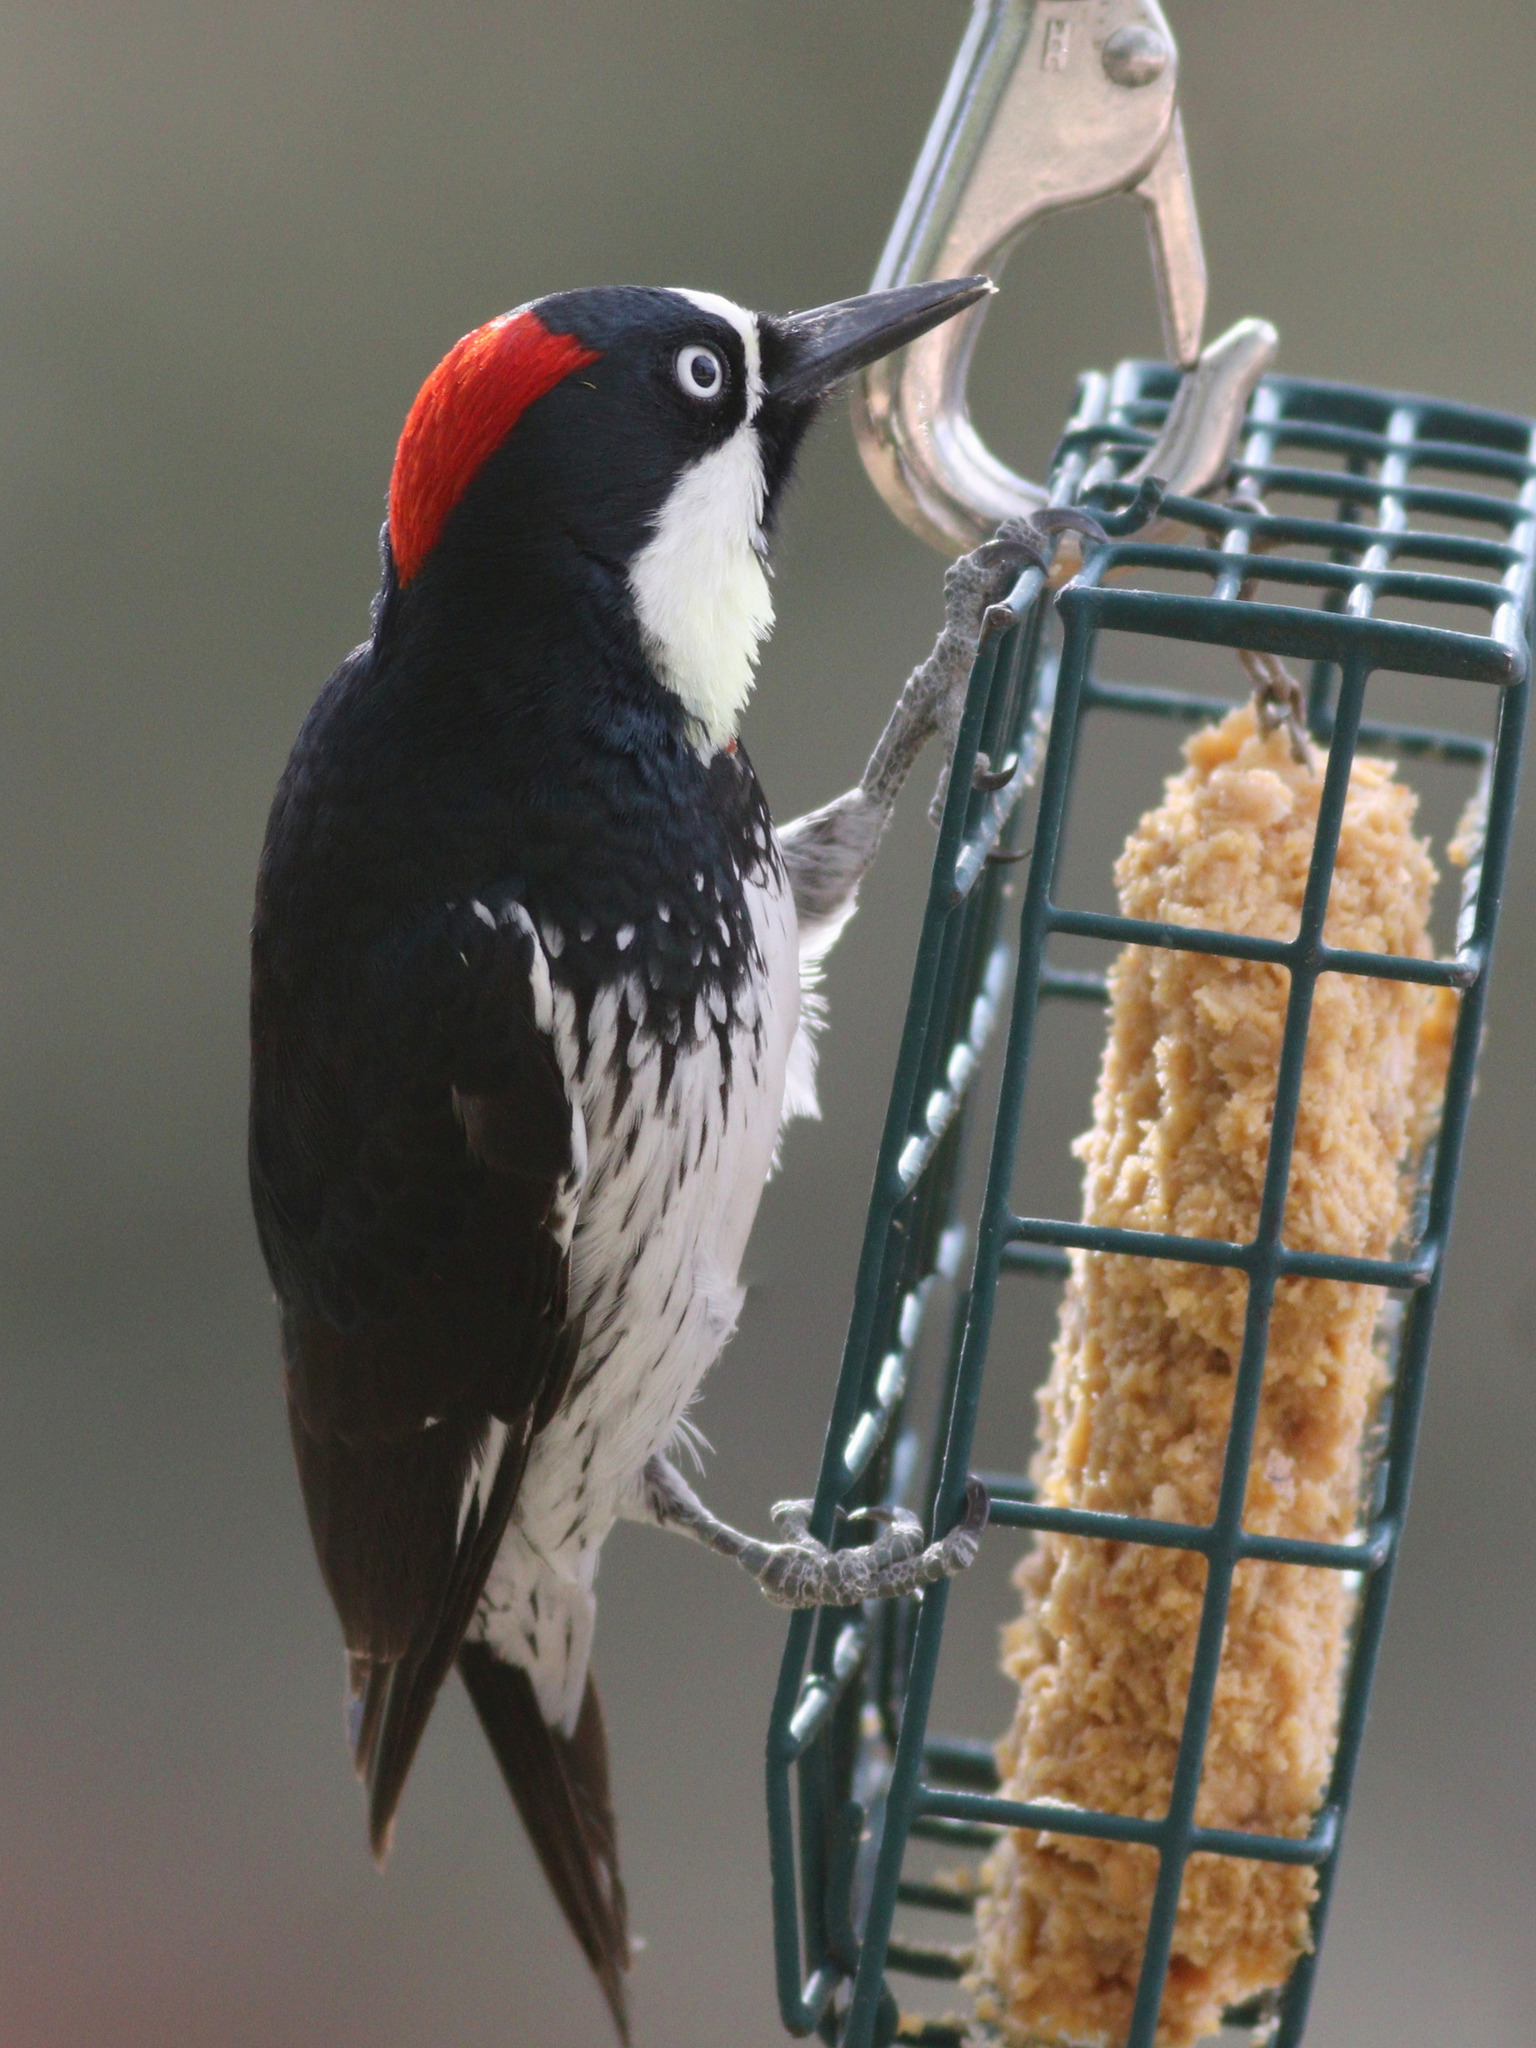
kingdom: Animalia
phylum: Chordata
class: Aves
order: Piciformes
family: Picidae
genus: Melanerpes
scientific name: Melanerpes formicivorus
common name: Acorn woodpecker
